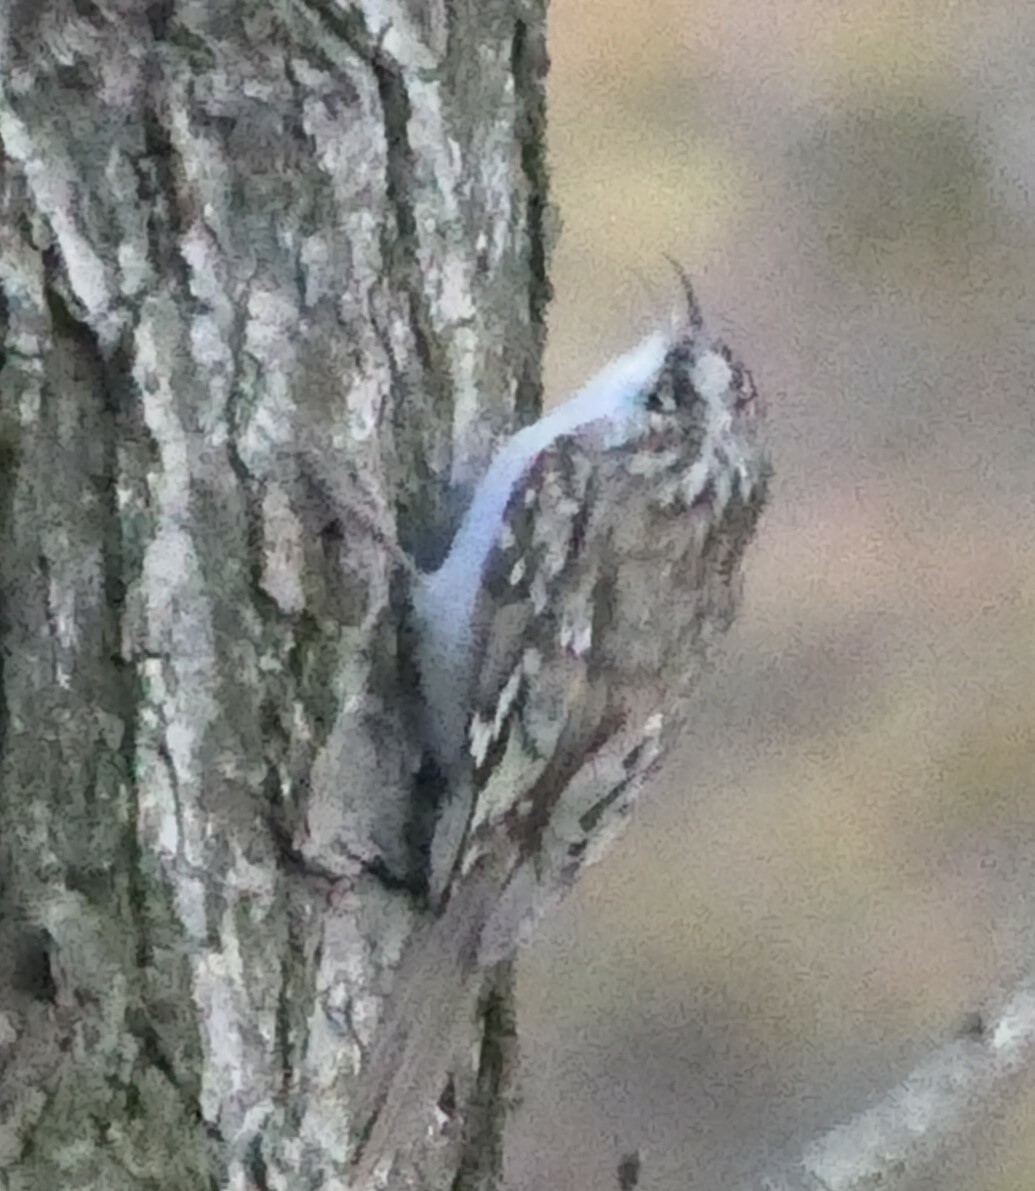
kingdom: Animalia
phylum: Chordata
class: Aves
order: Passeriformes
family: Certhiidae
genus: Certhia
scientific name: Certhia familiaris
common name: Eurasian treecreeper
